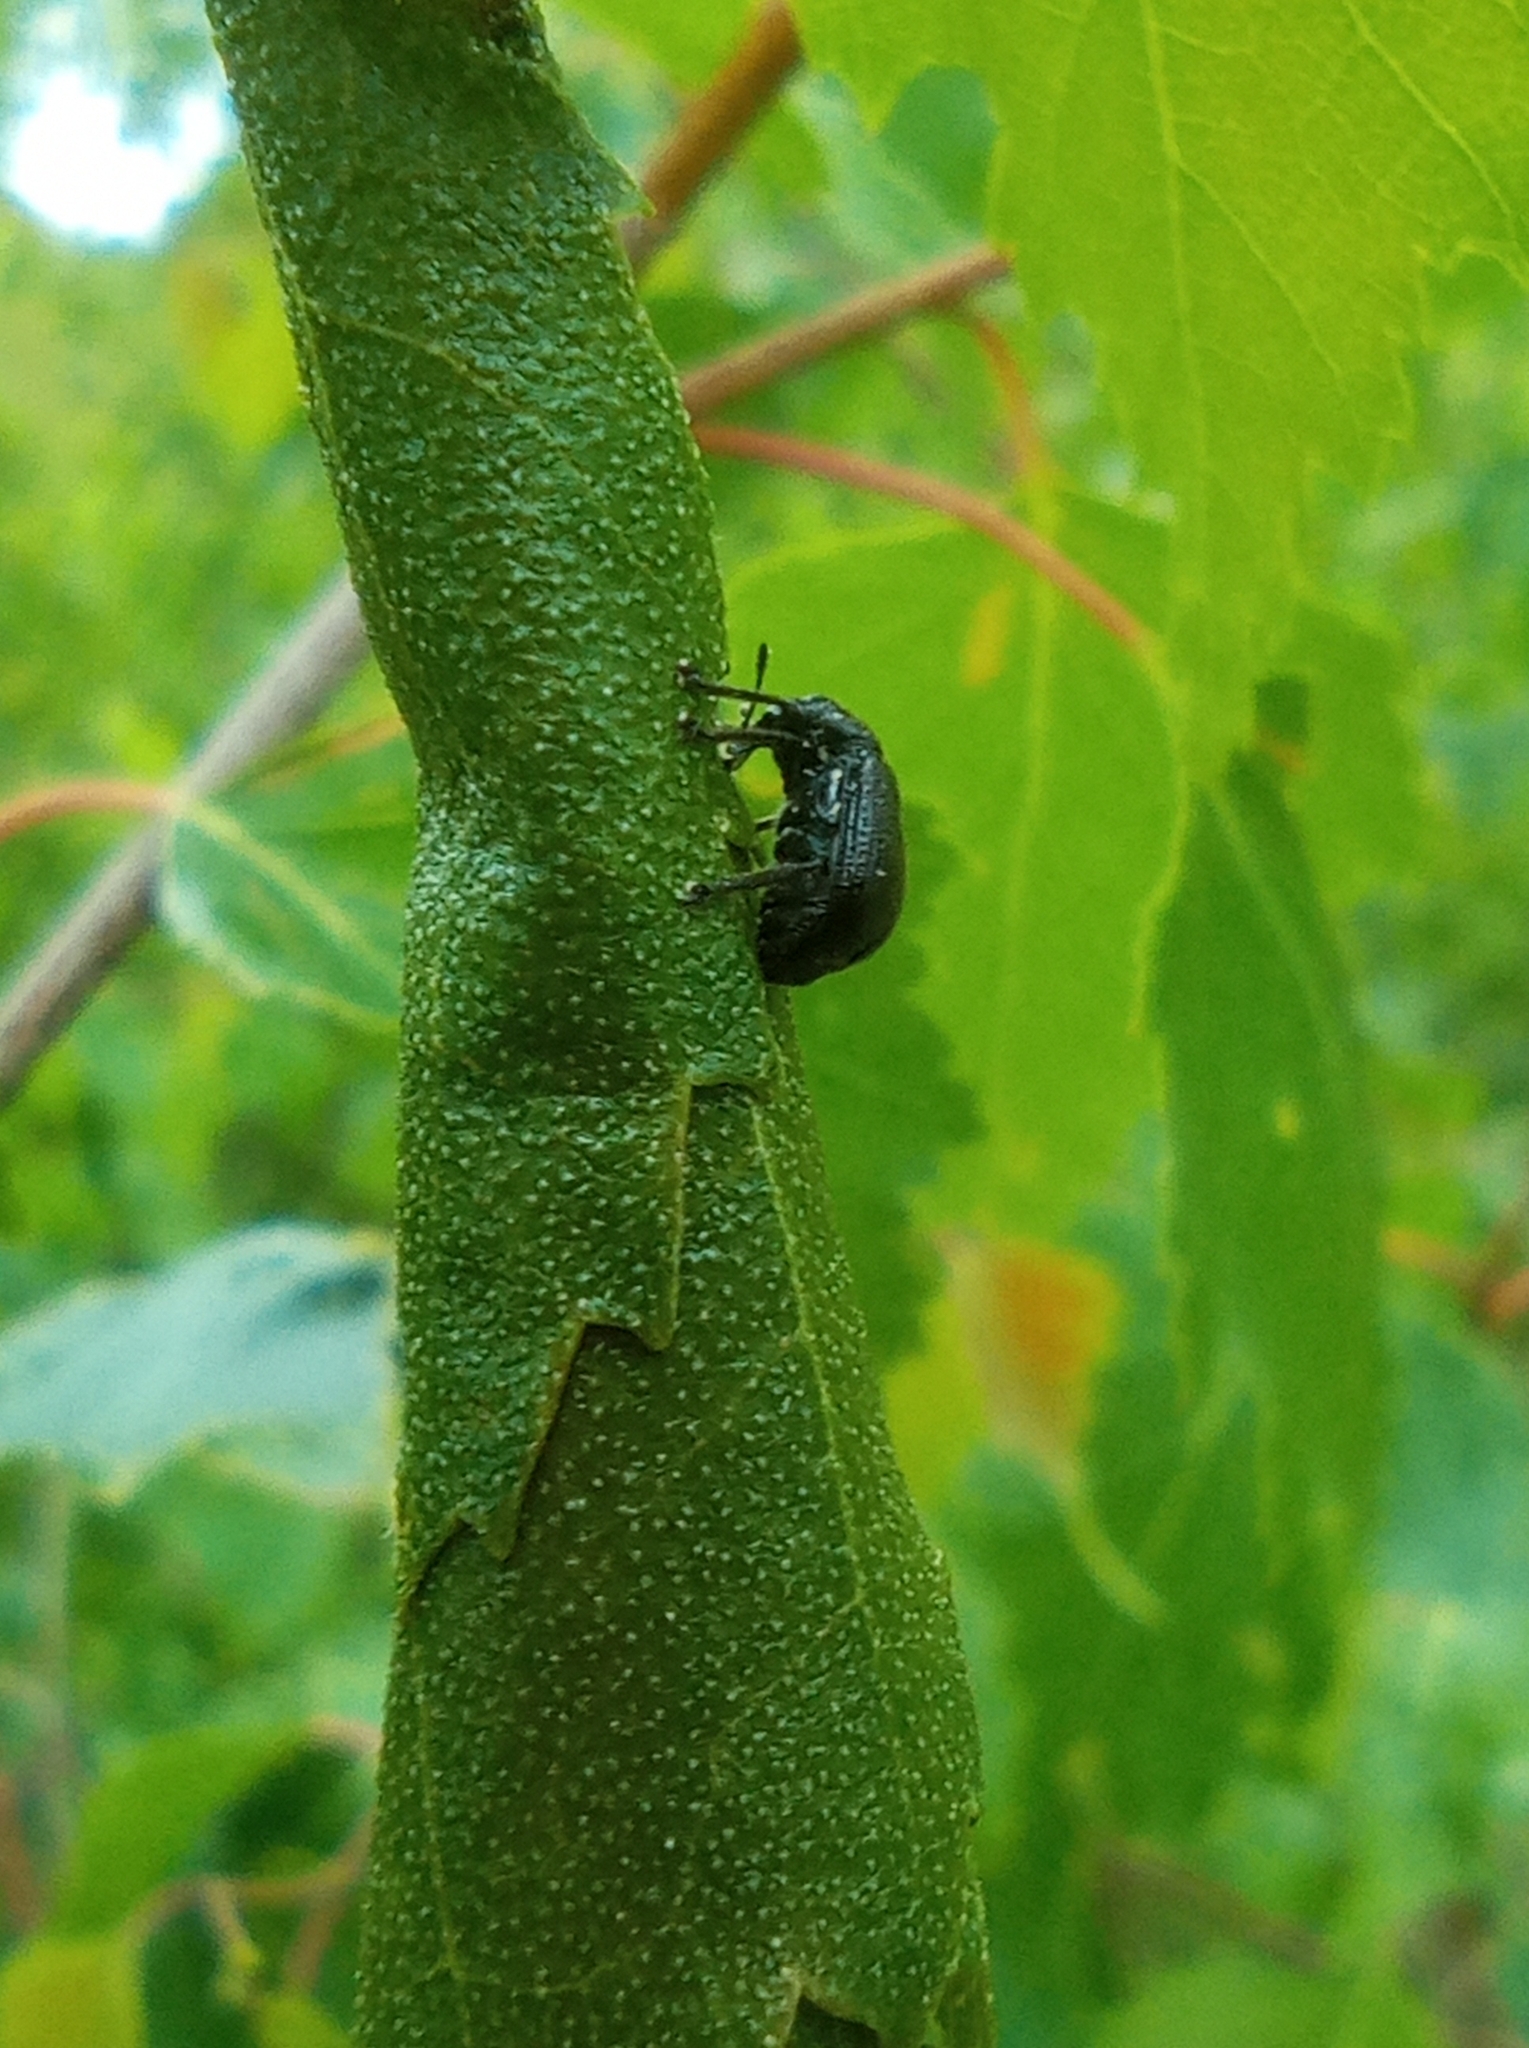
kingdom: Animalia
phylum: Arthropoda
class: Insecta
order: Coleoptera
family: Attelabidae
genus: Deporaus
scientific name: Deporaus betulae
